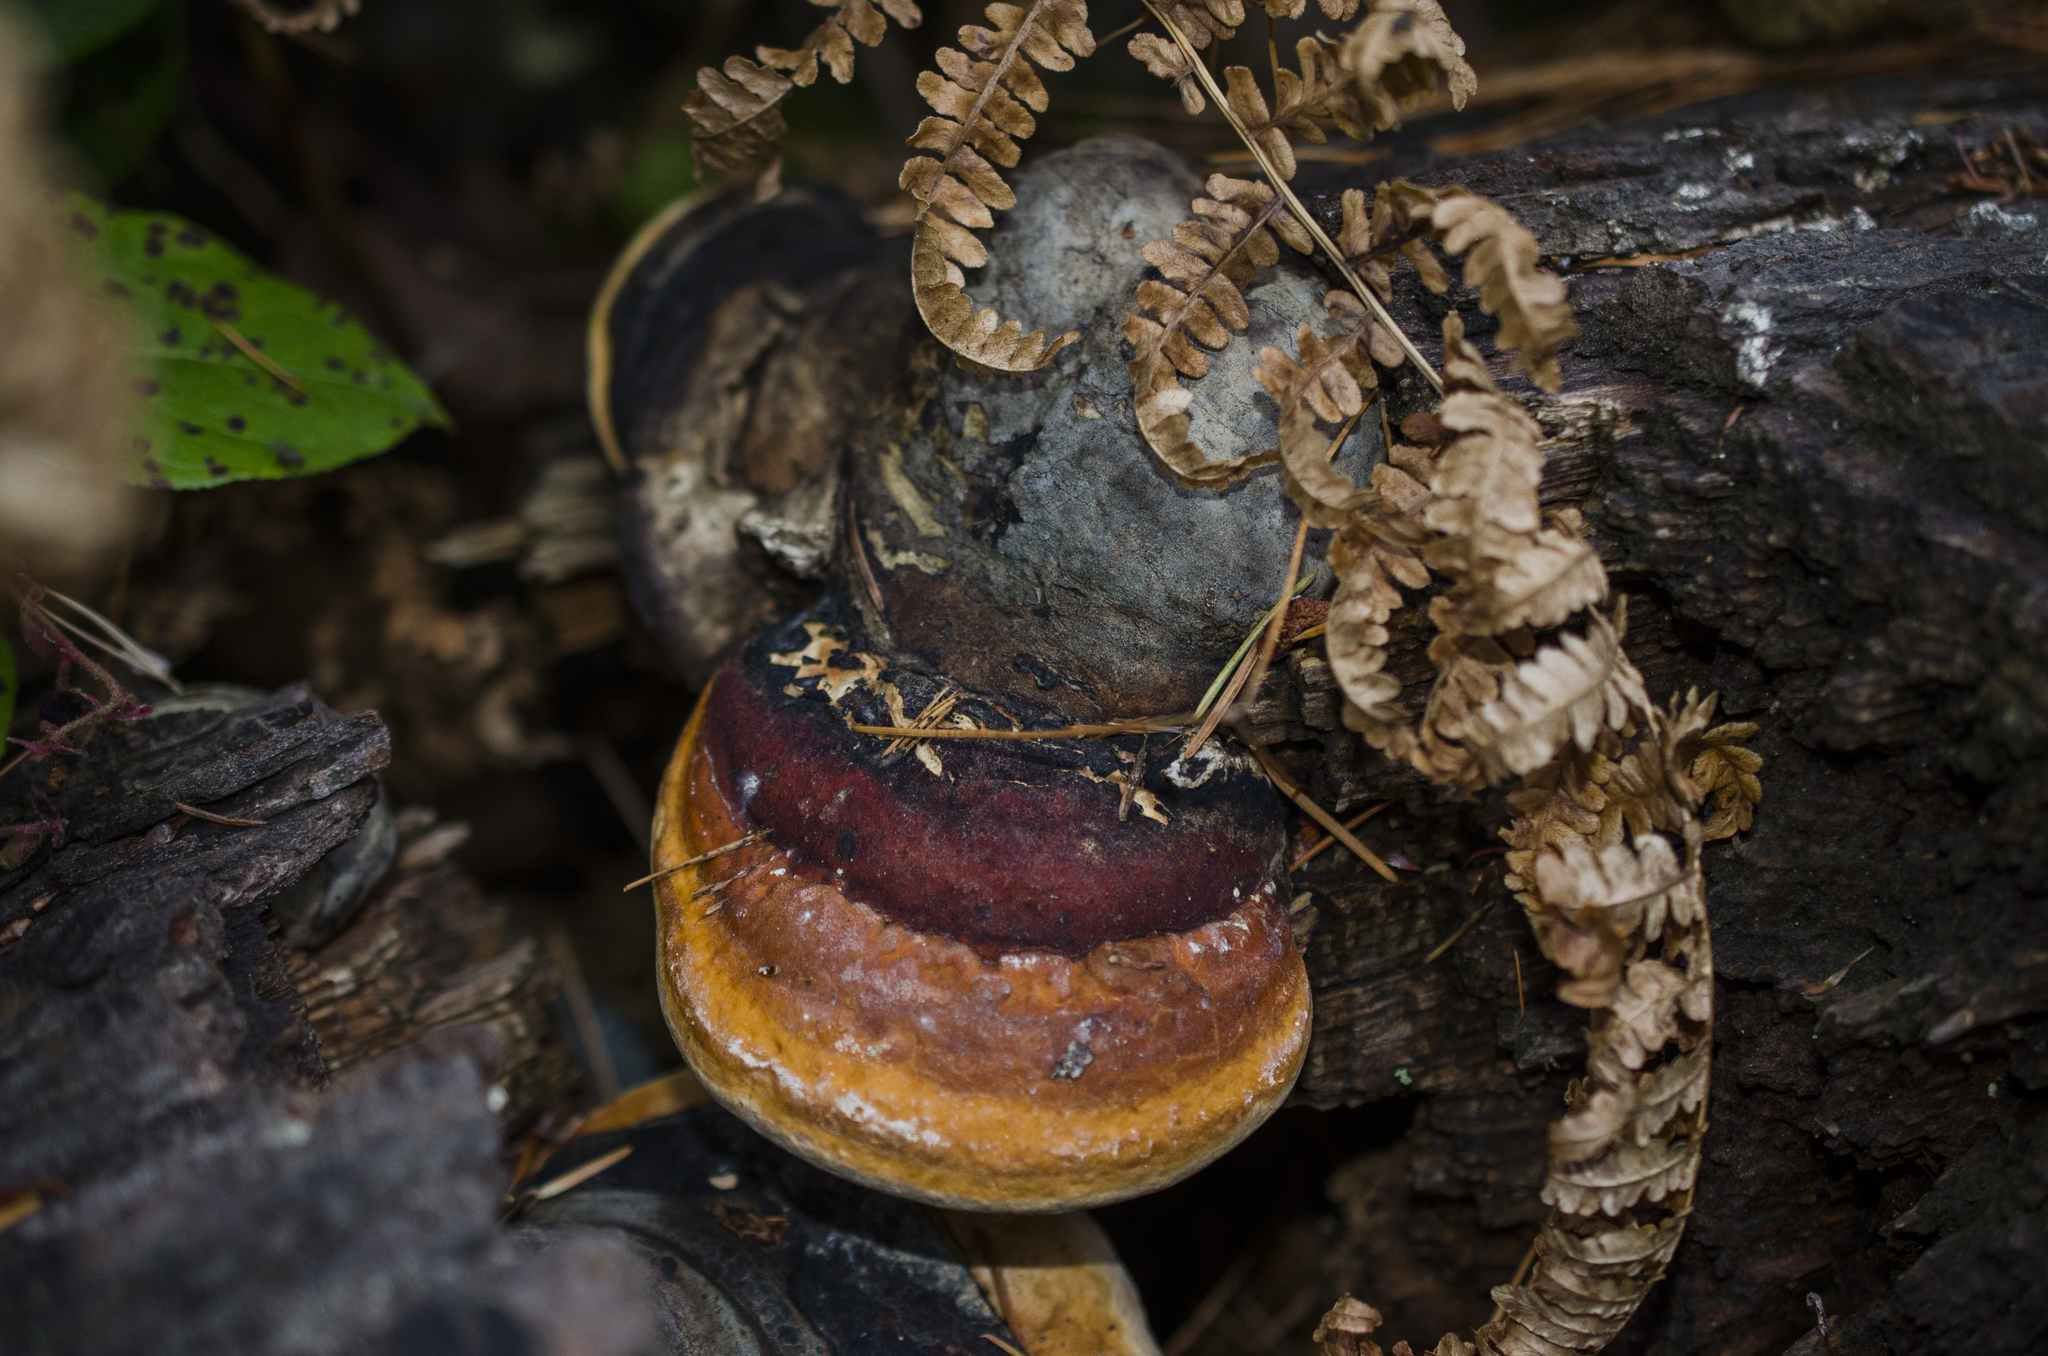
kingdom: Fungi
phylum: Basidiomycota
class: Agaricomycetes
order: Polyporales
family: Fomitopsidaceae
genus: Fomitopsis
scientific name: Fomitopsis mounceae
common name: Northern red belt
